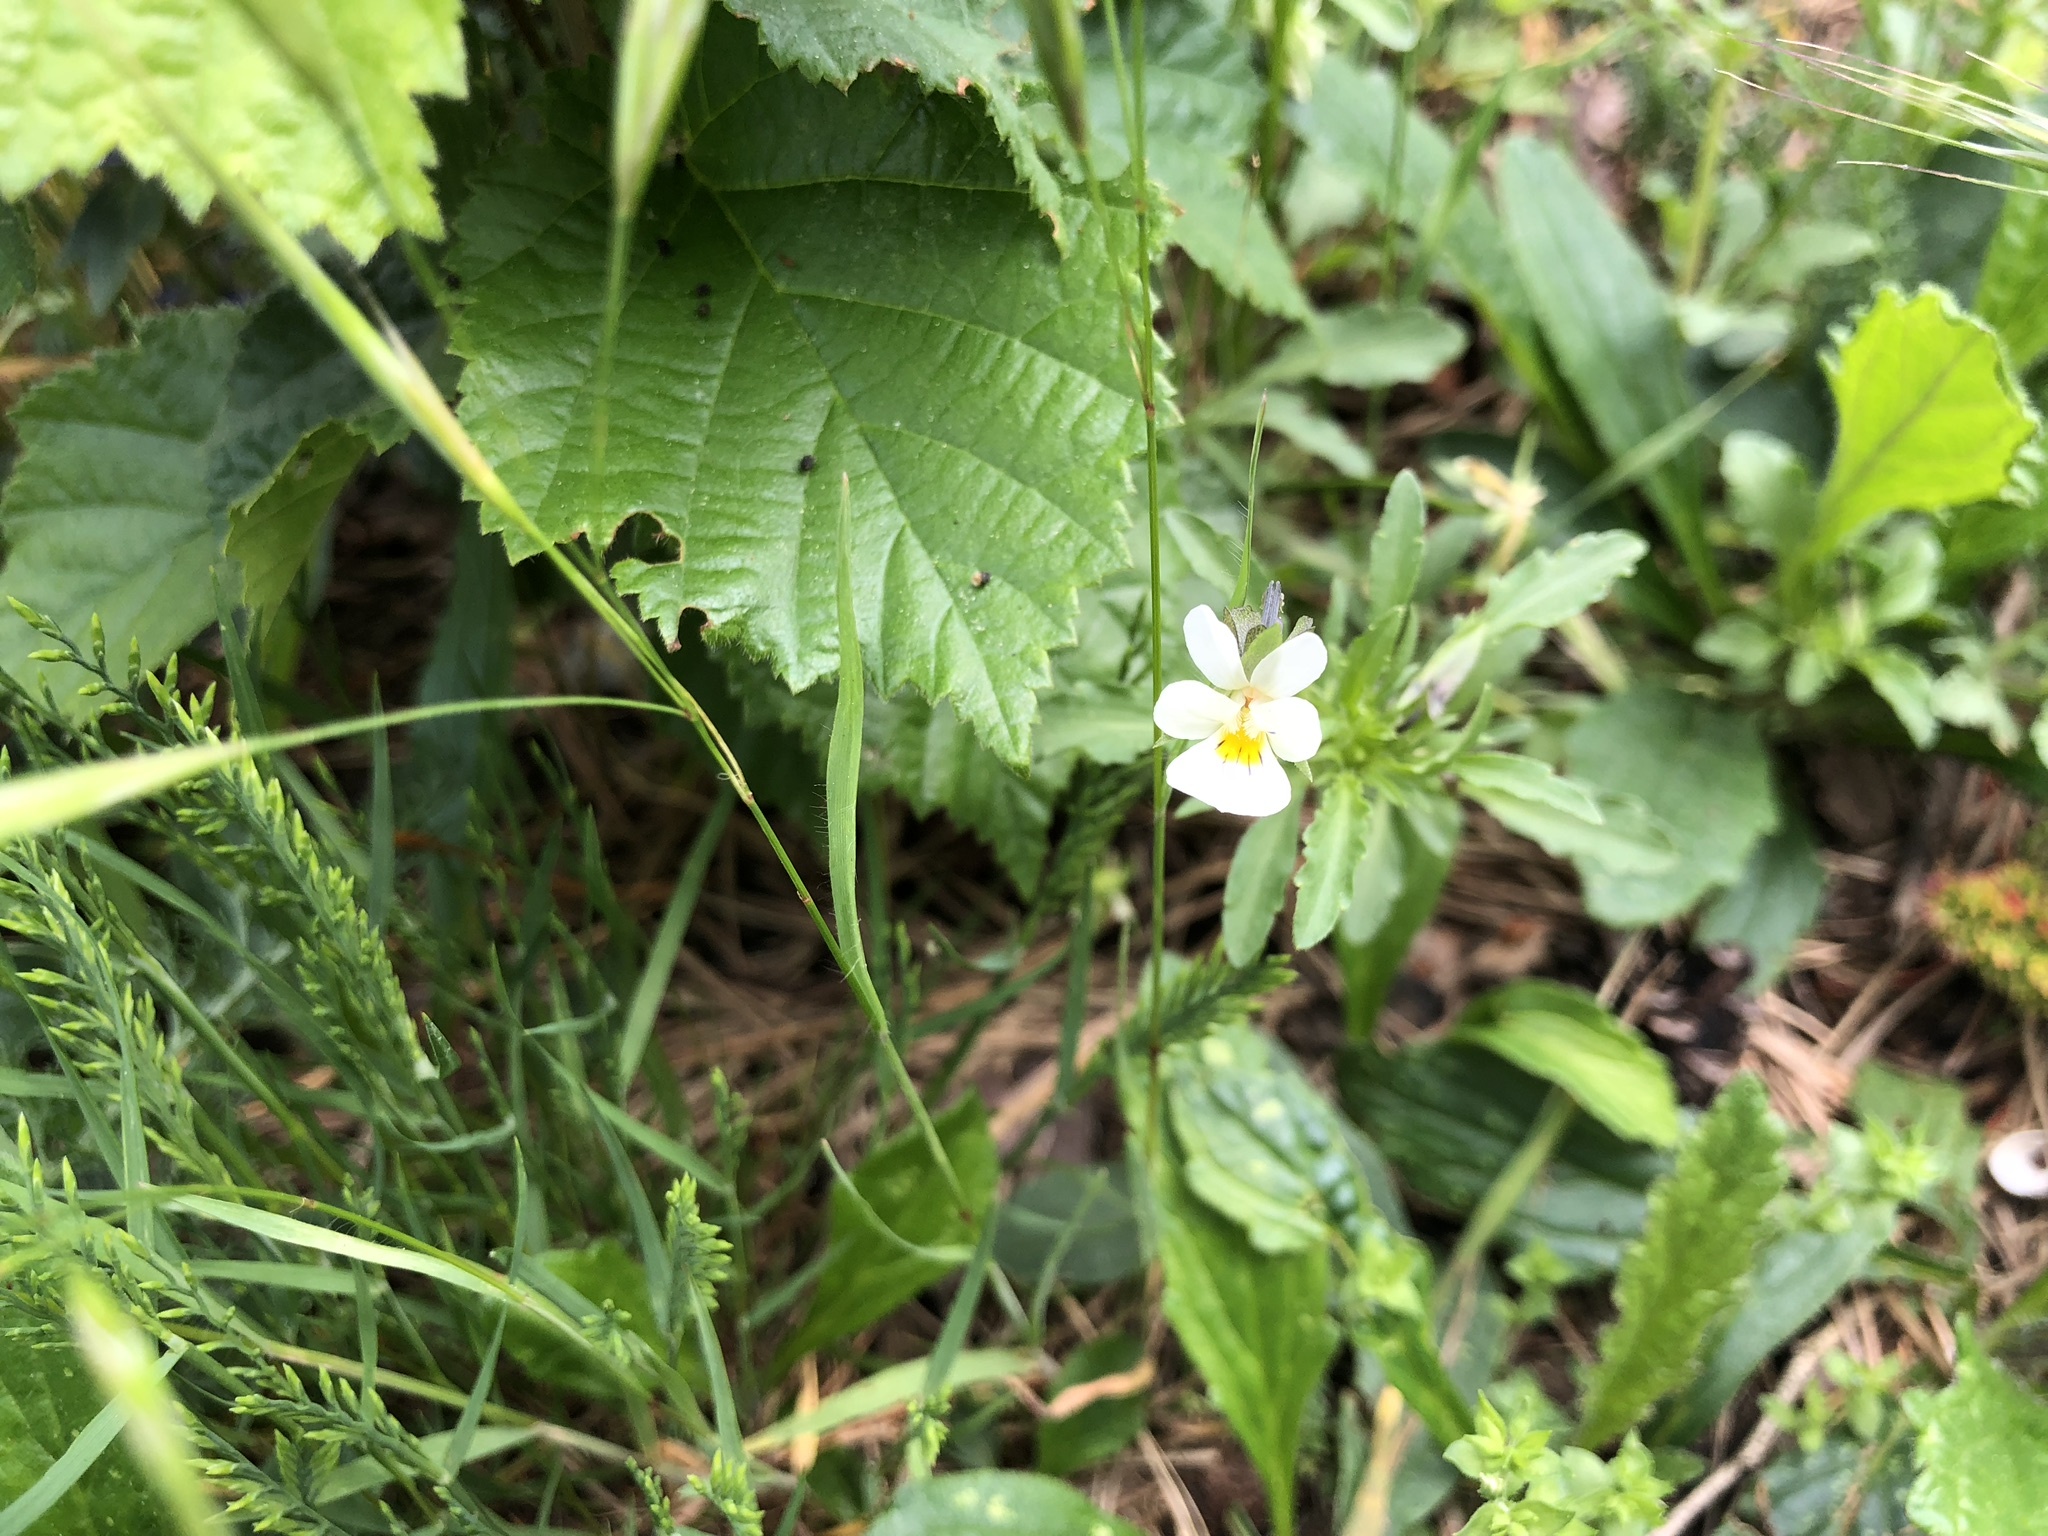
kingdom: Plantae
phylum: Tracheophyta
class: Magnoliopsida
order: Malpighiales
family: Violaceae
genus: Viola
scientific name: Viola arvensis
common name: Field pansy
